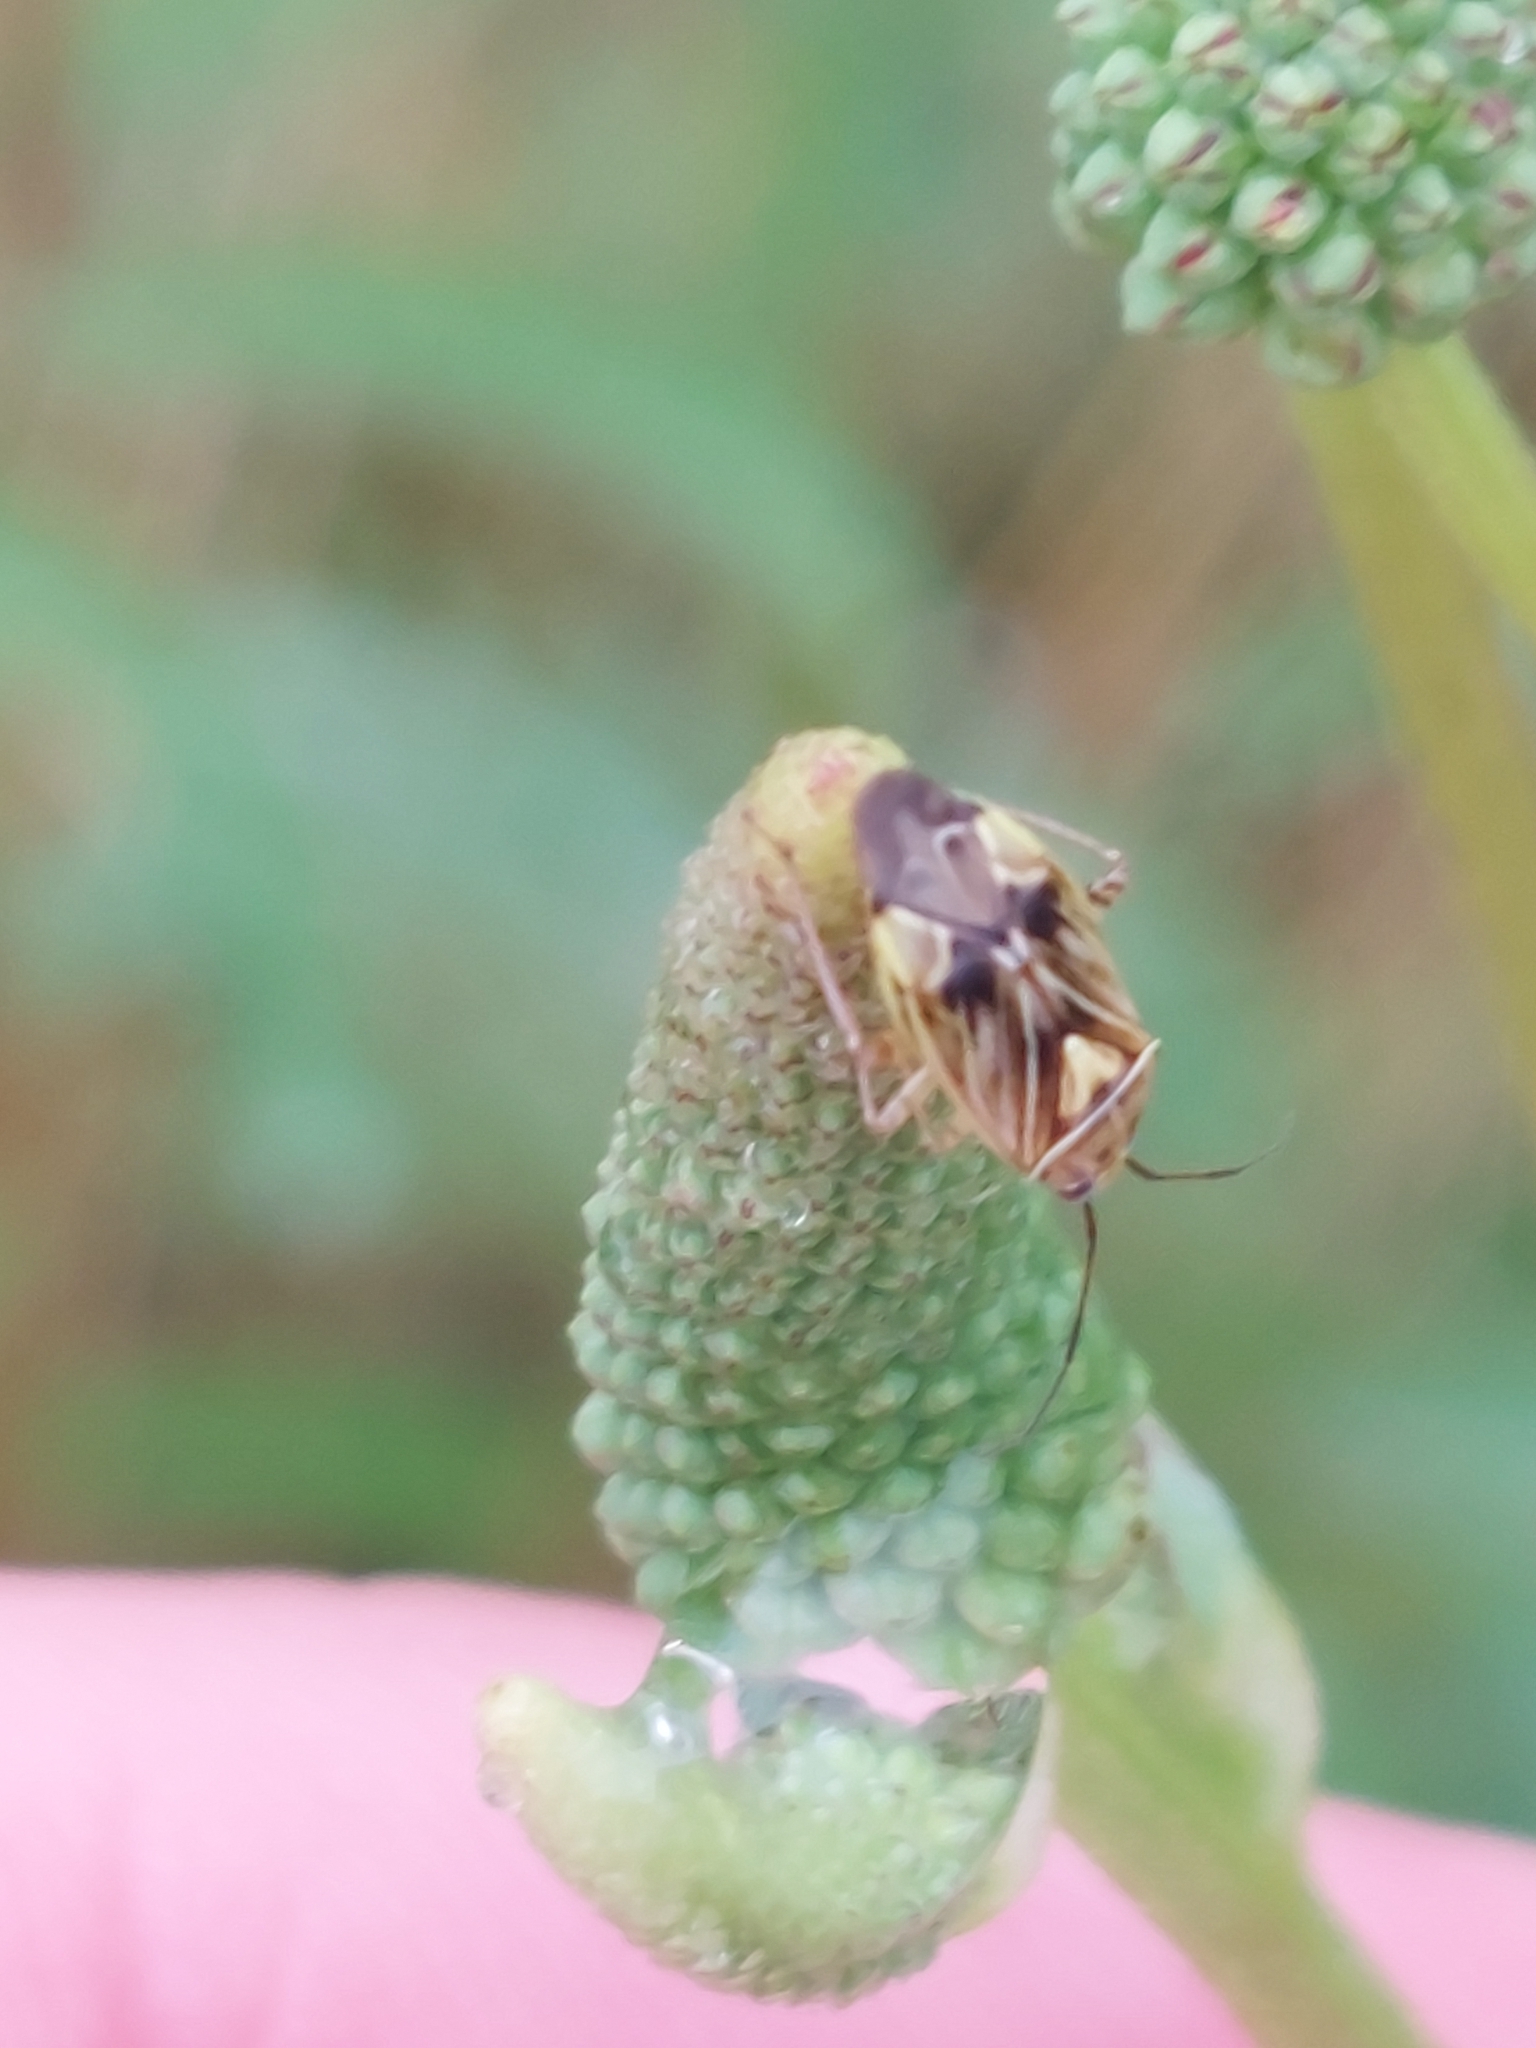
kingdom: Animalia
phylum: Arthropoda
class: Insecta
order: Hemiptera
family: Miridae
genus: Lygus
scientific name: Lygus lineolaris
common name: North american tarnished plant bug
